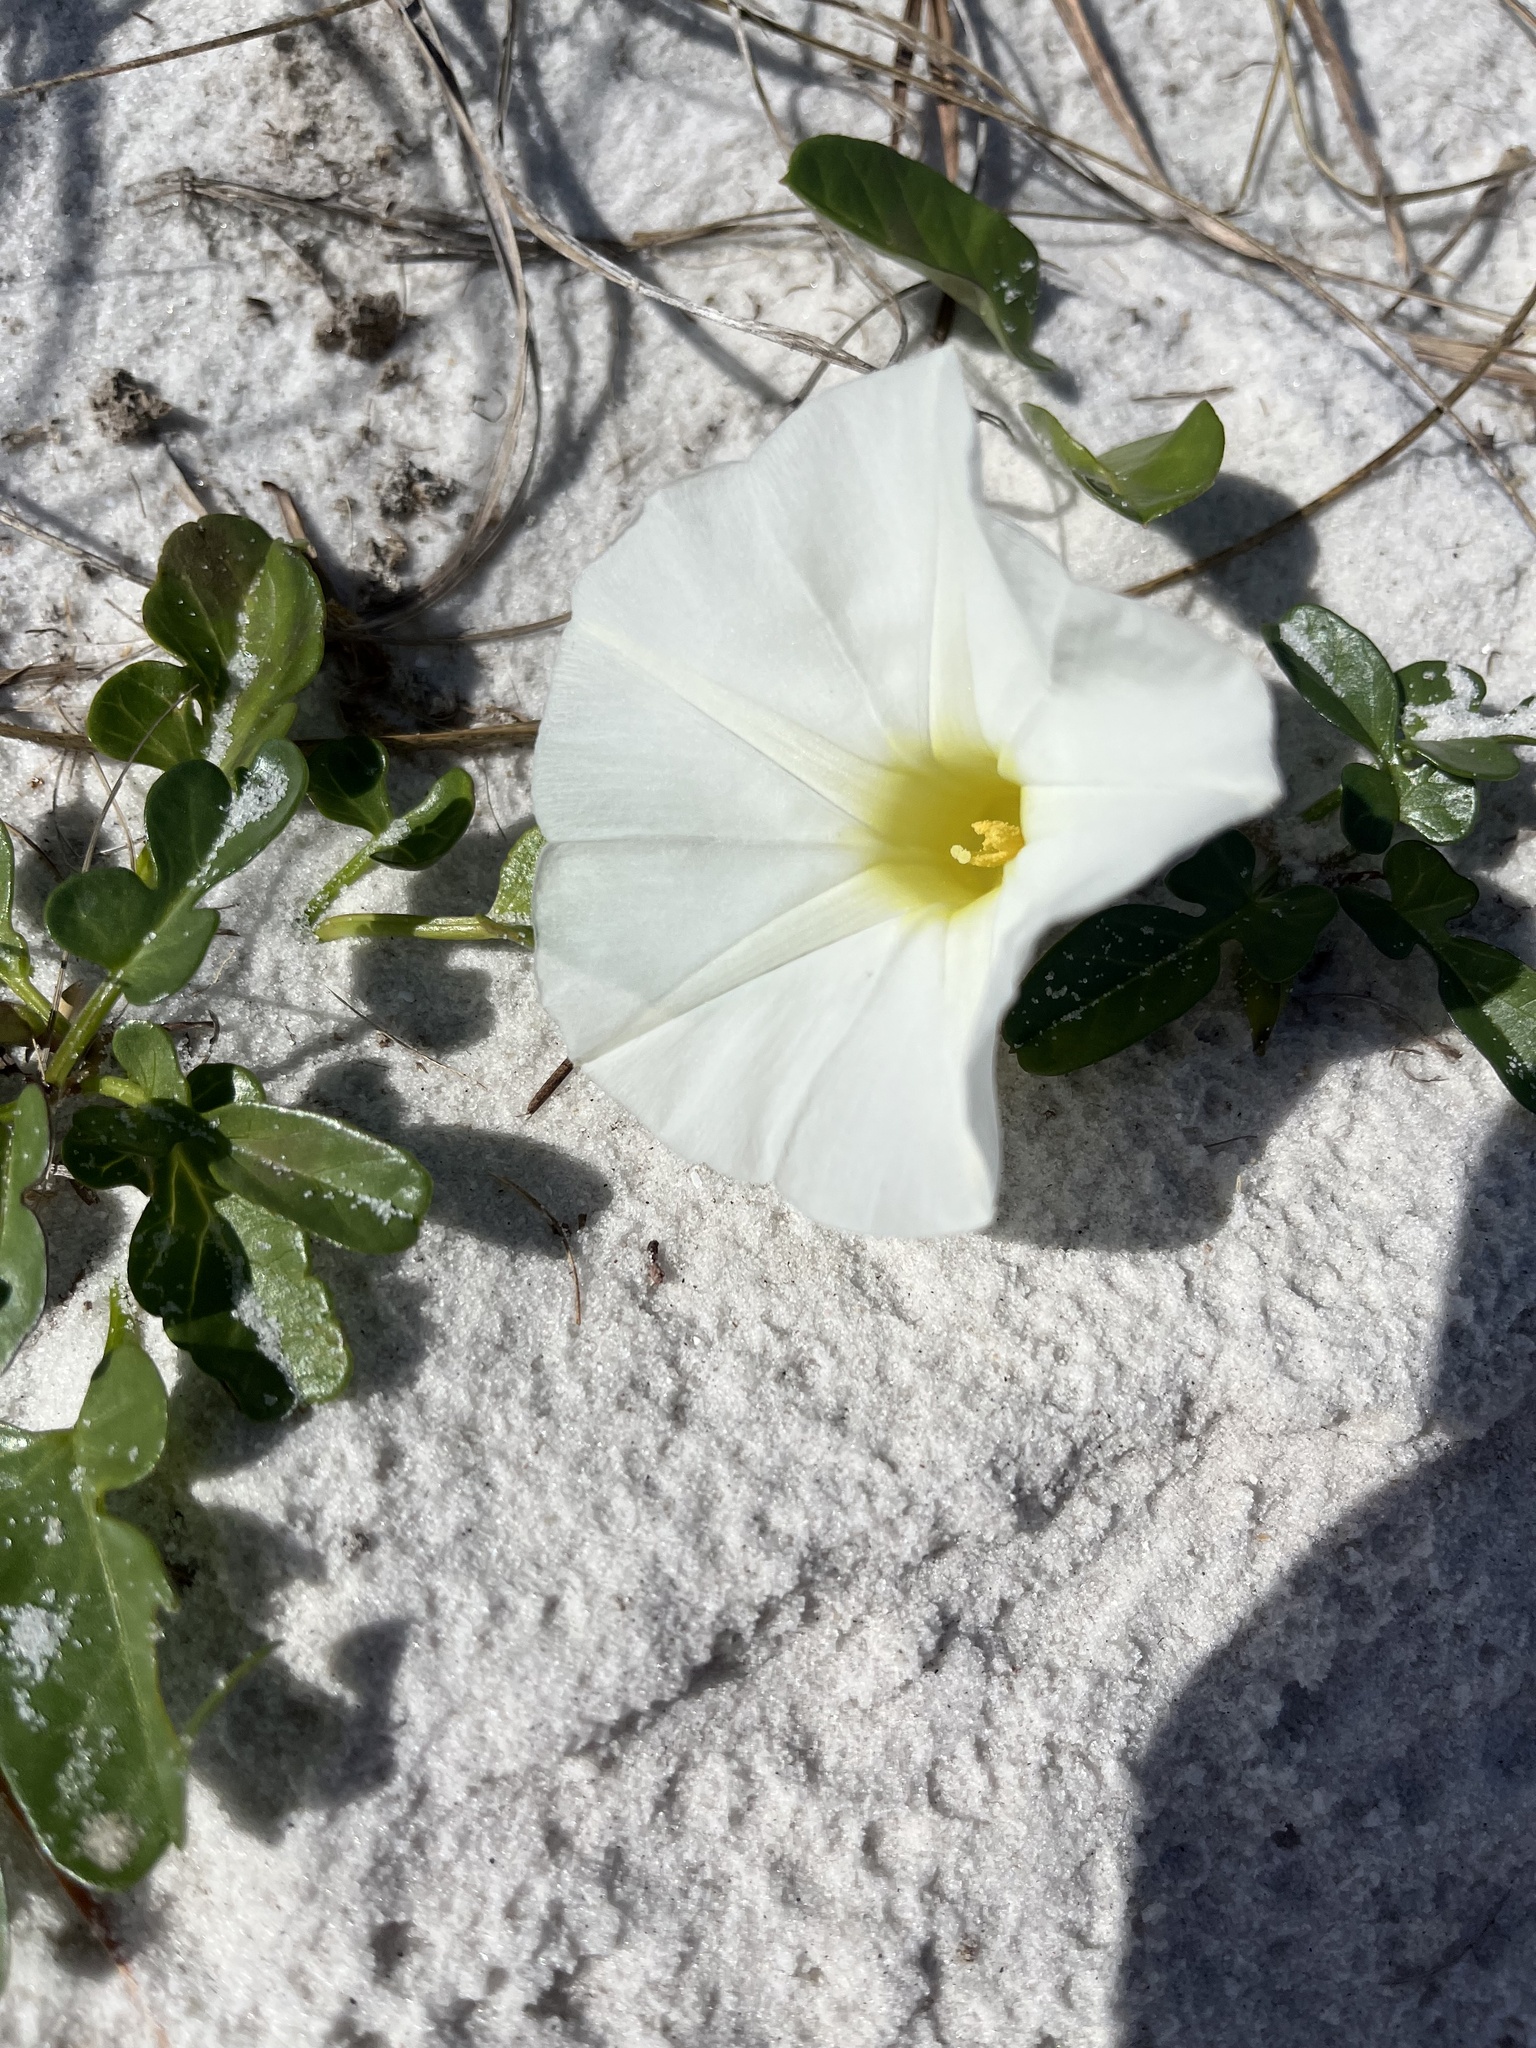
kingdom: Plantae
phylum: Tracheophyta
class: Magnoliopsida
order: Solanales
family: Convolvulaceae
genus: Ipomoea
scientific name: Ipomoea imperati
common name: Fiddle-leaf morning-glory
